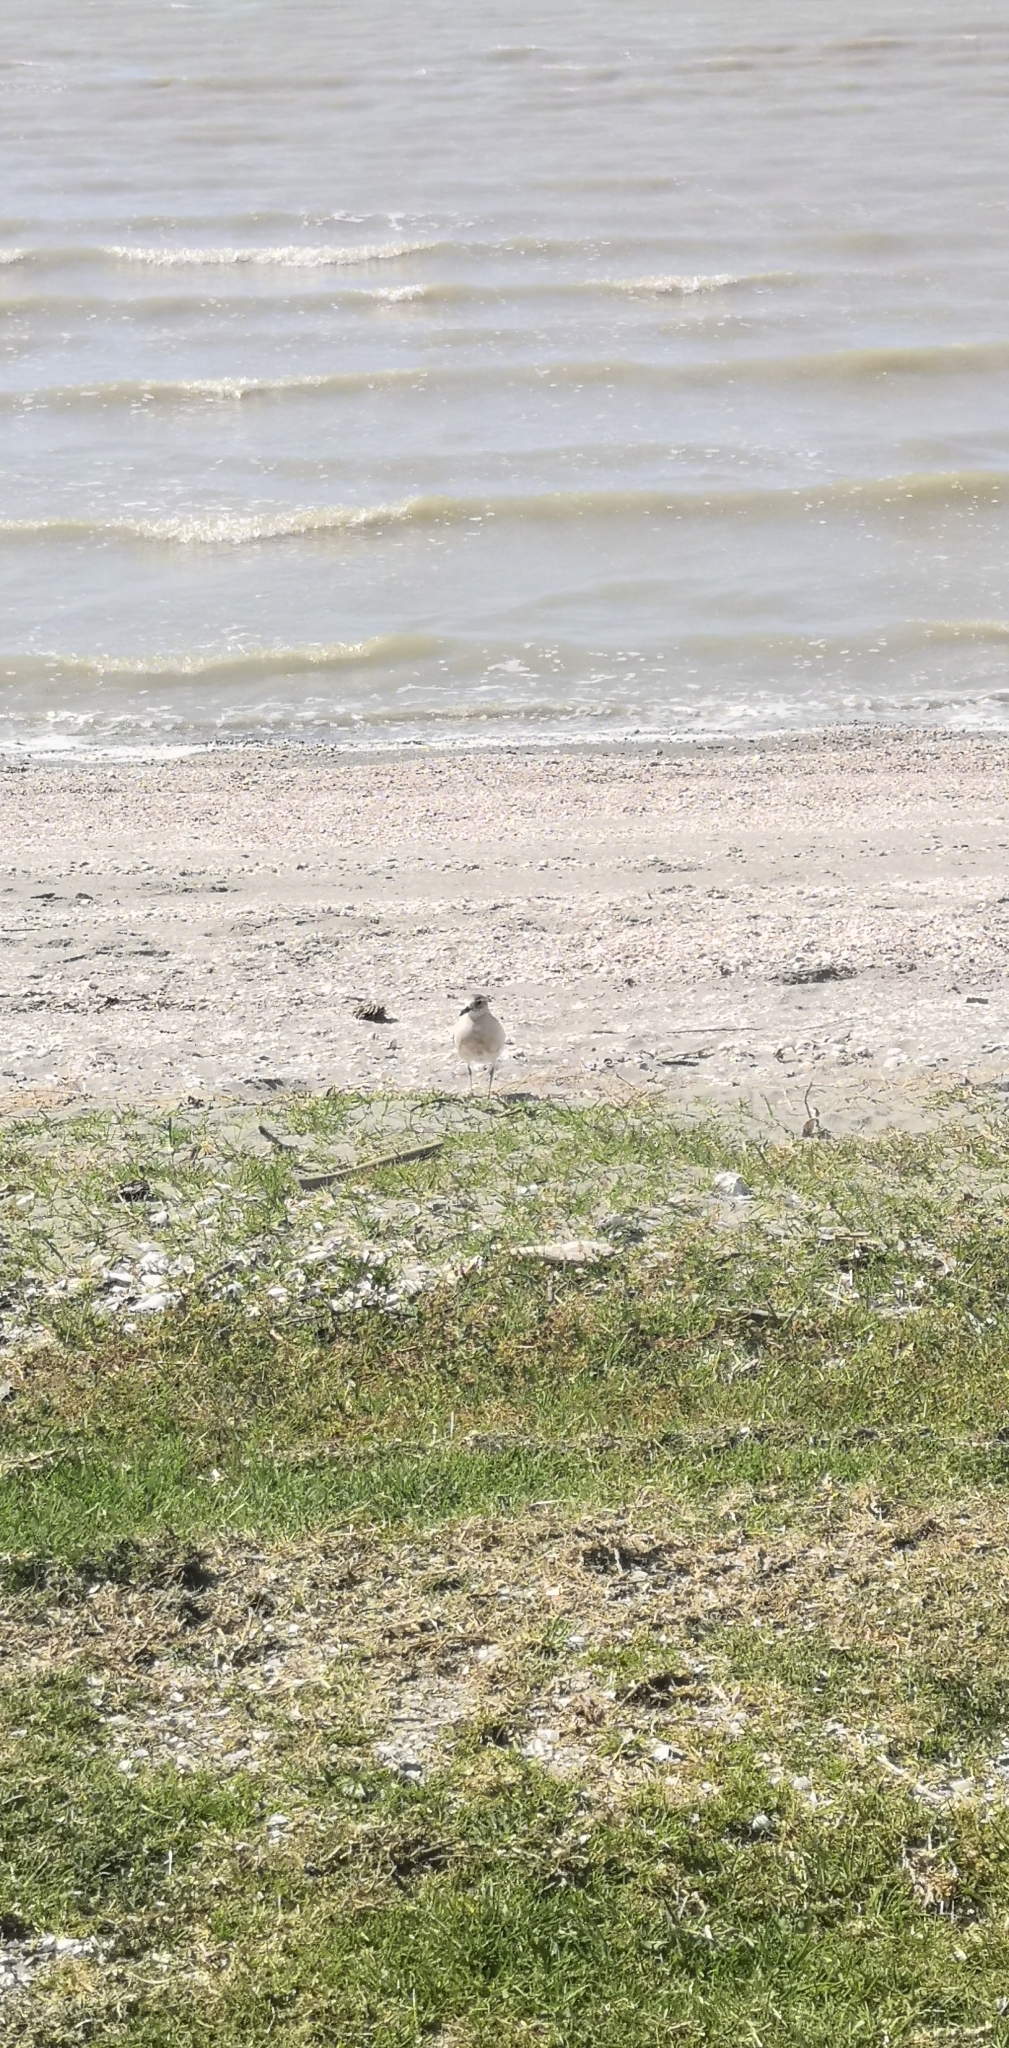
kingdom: Animalia
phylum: Chordata
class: Aves
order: Charadriiformes
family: Charadriidae
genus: Anarhynchus
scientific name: Anarhynchus
